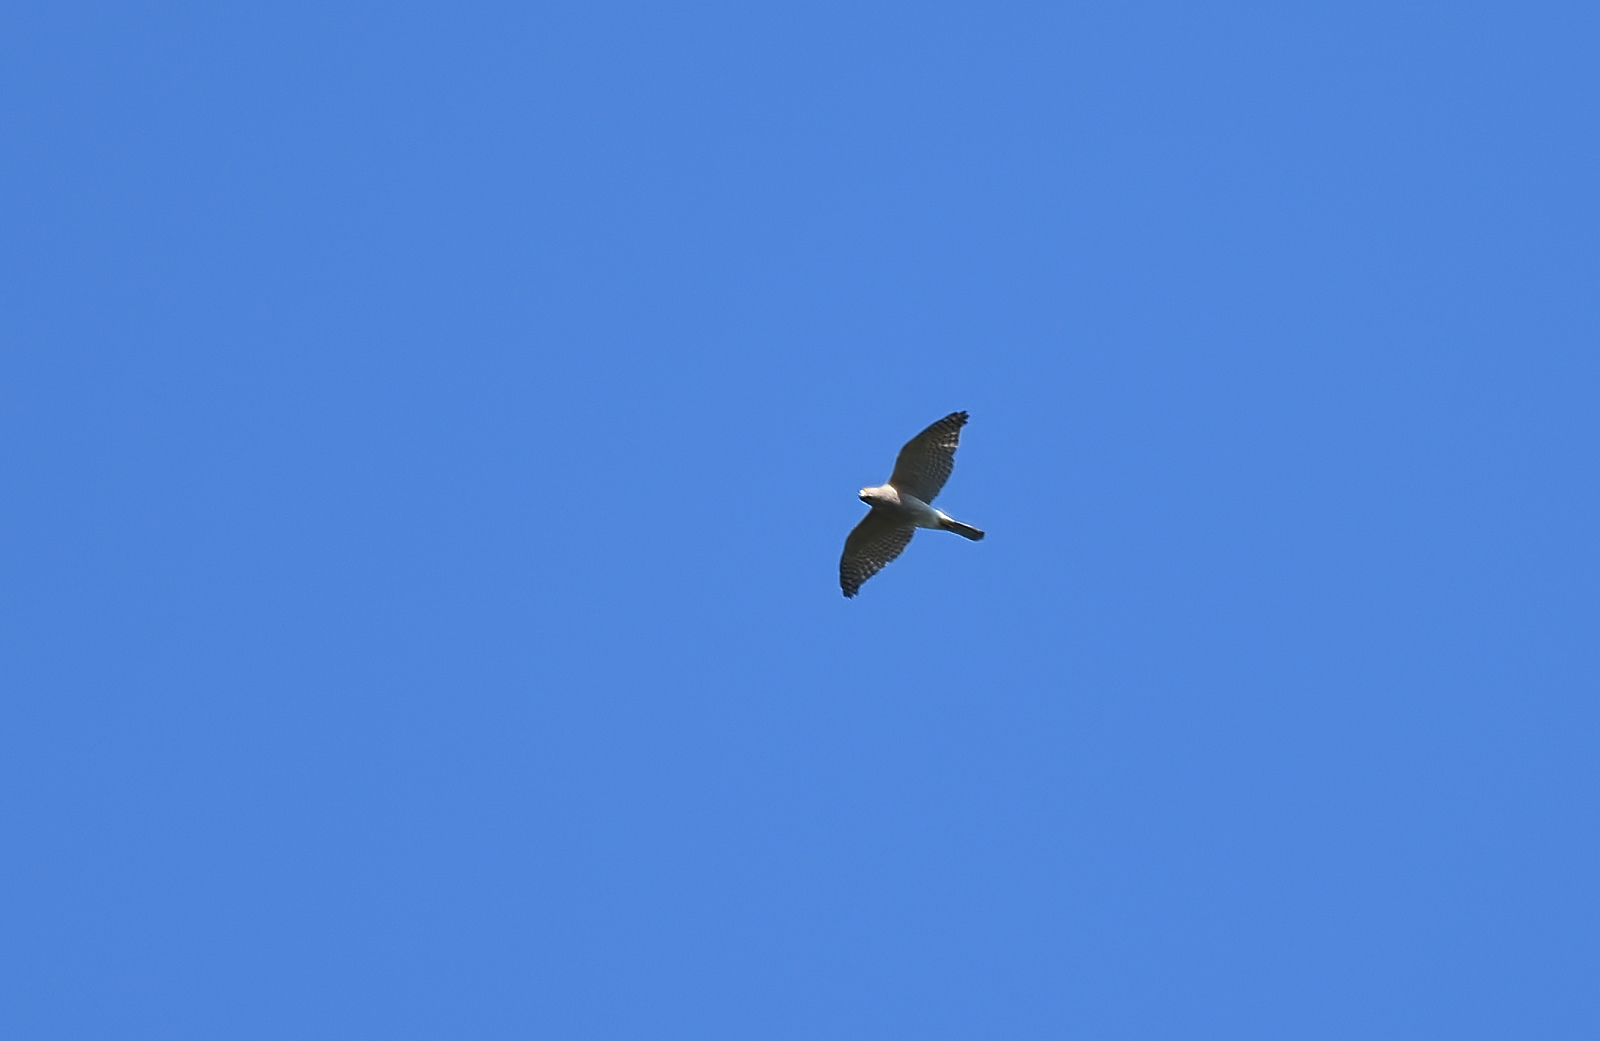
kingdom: Animalia
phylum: Chordata
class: Aves
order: Accipitriformes
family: Accipitridae
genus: Accipiter
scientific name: Accipiter badius
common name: Shikra
